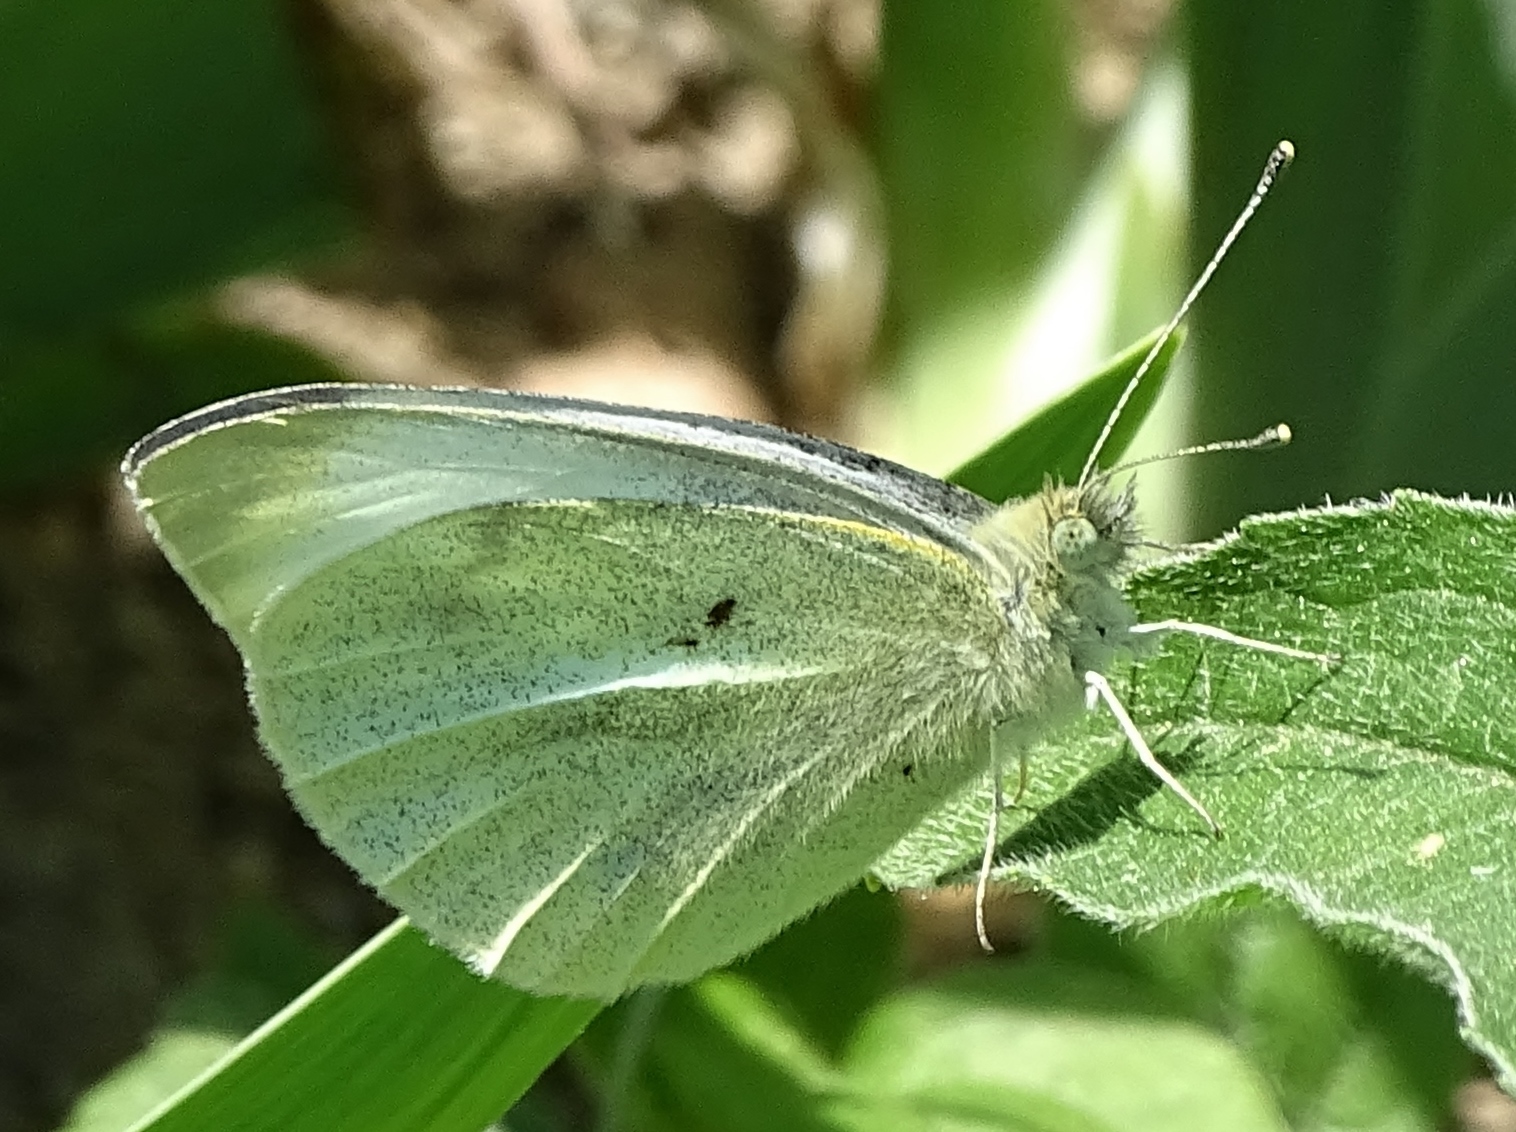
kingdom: Animalia
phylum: Arthropoda
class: Insecta
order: Lepidoptera
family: Pieridae
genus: Pieris
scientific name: Pieris rapae
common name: Small white
